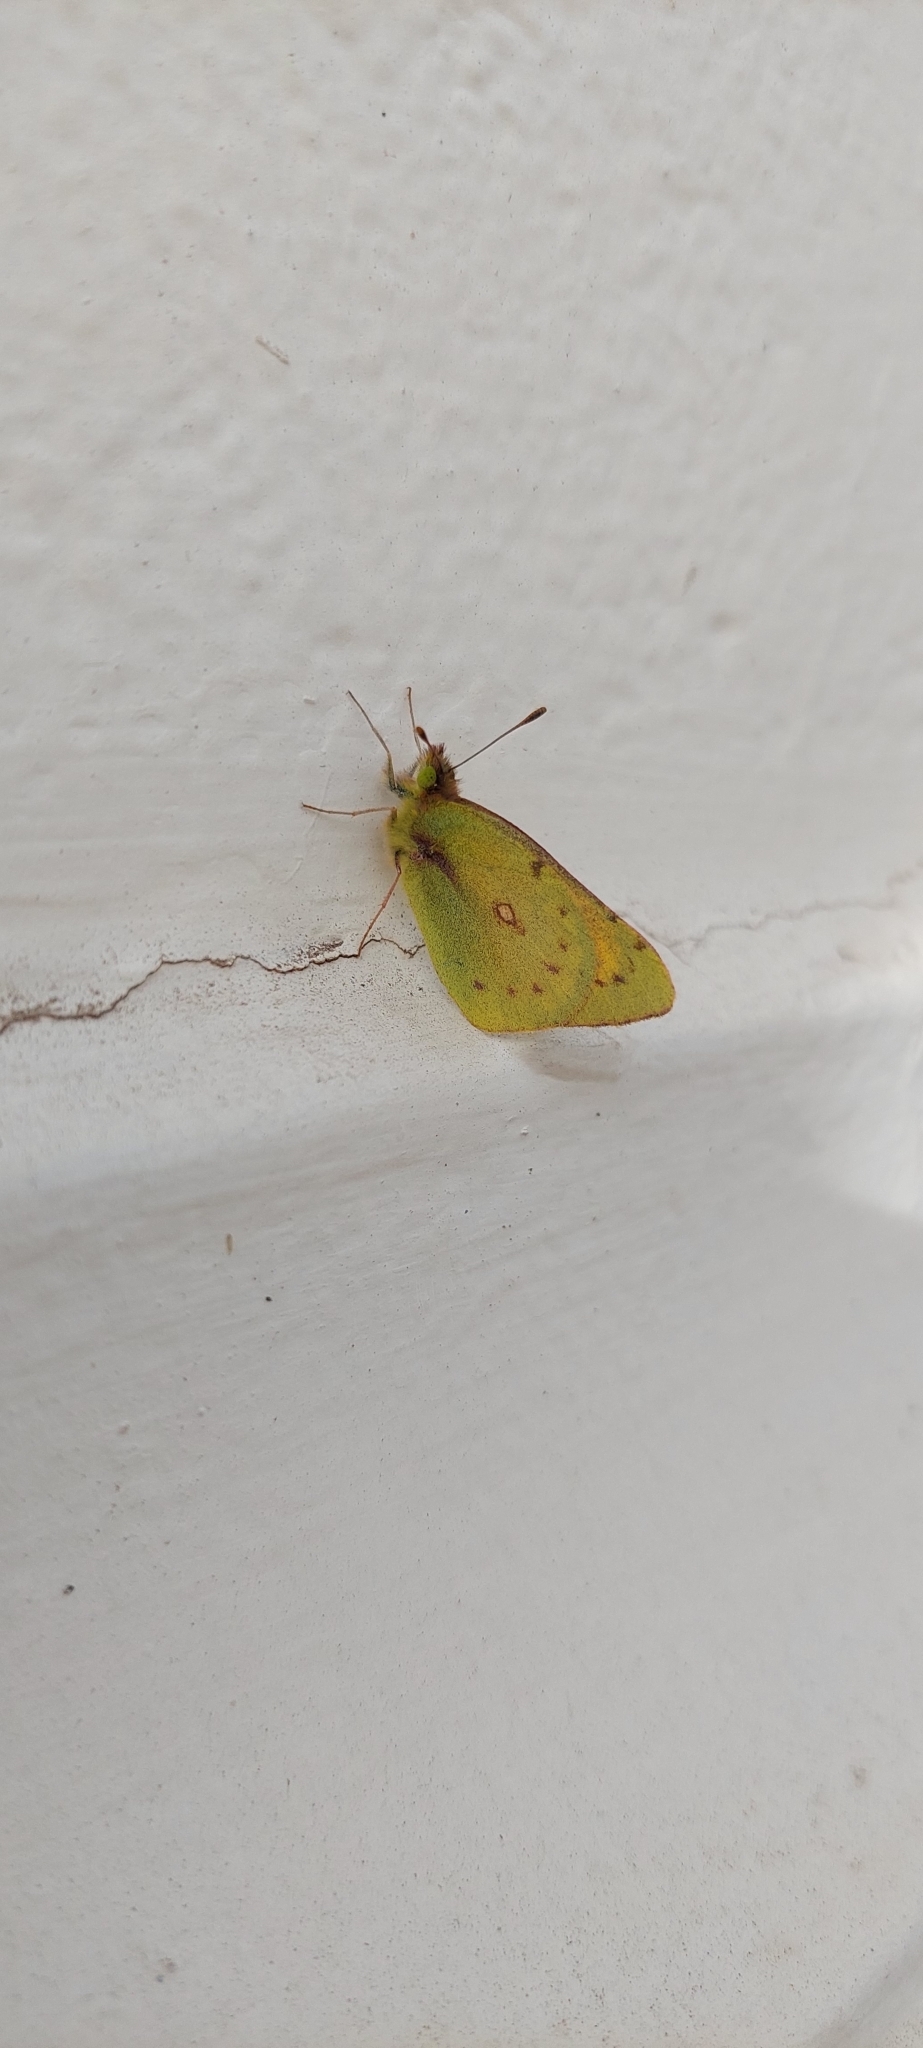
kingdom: Animalia
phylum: Arthropoda
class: Insecta
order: Lepidoptera
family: Pieridae
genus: Colias
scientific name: Colias lesbia
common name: Lesbia clouded yellow
